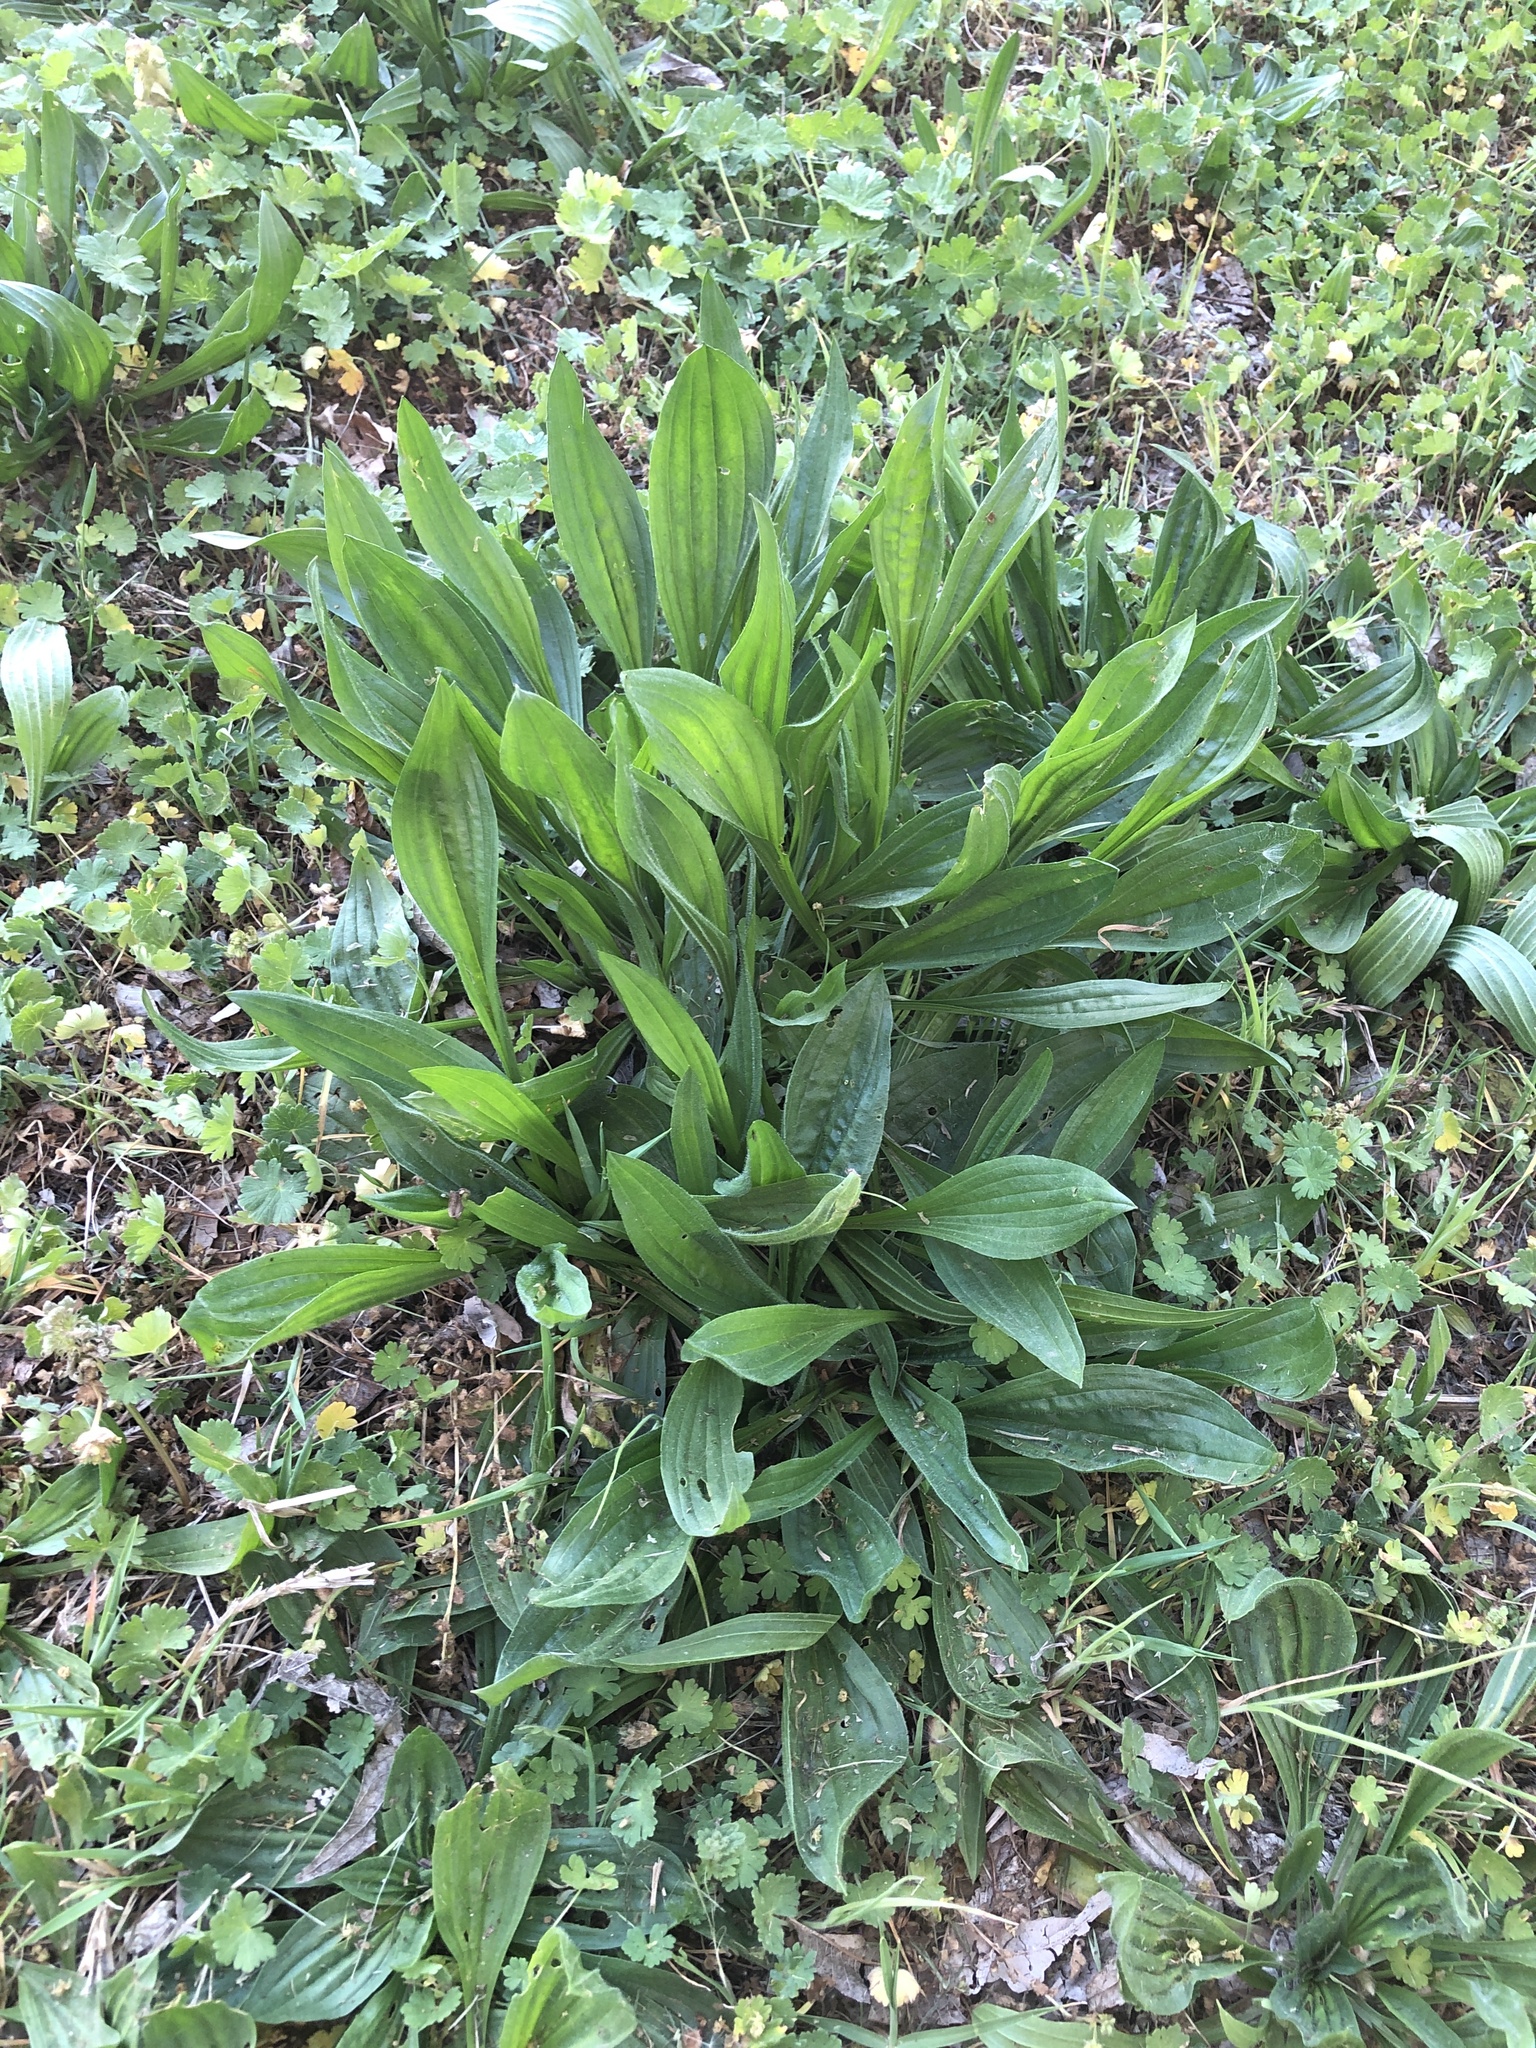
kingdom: Plantae
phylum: Tracheophyta
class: Magnoliopsida
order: Lamiales
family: Plantaginaceae
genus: Plantago
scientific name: Plantago lanceolata
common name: Ribwort plantain
